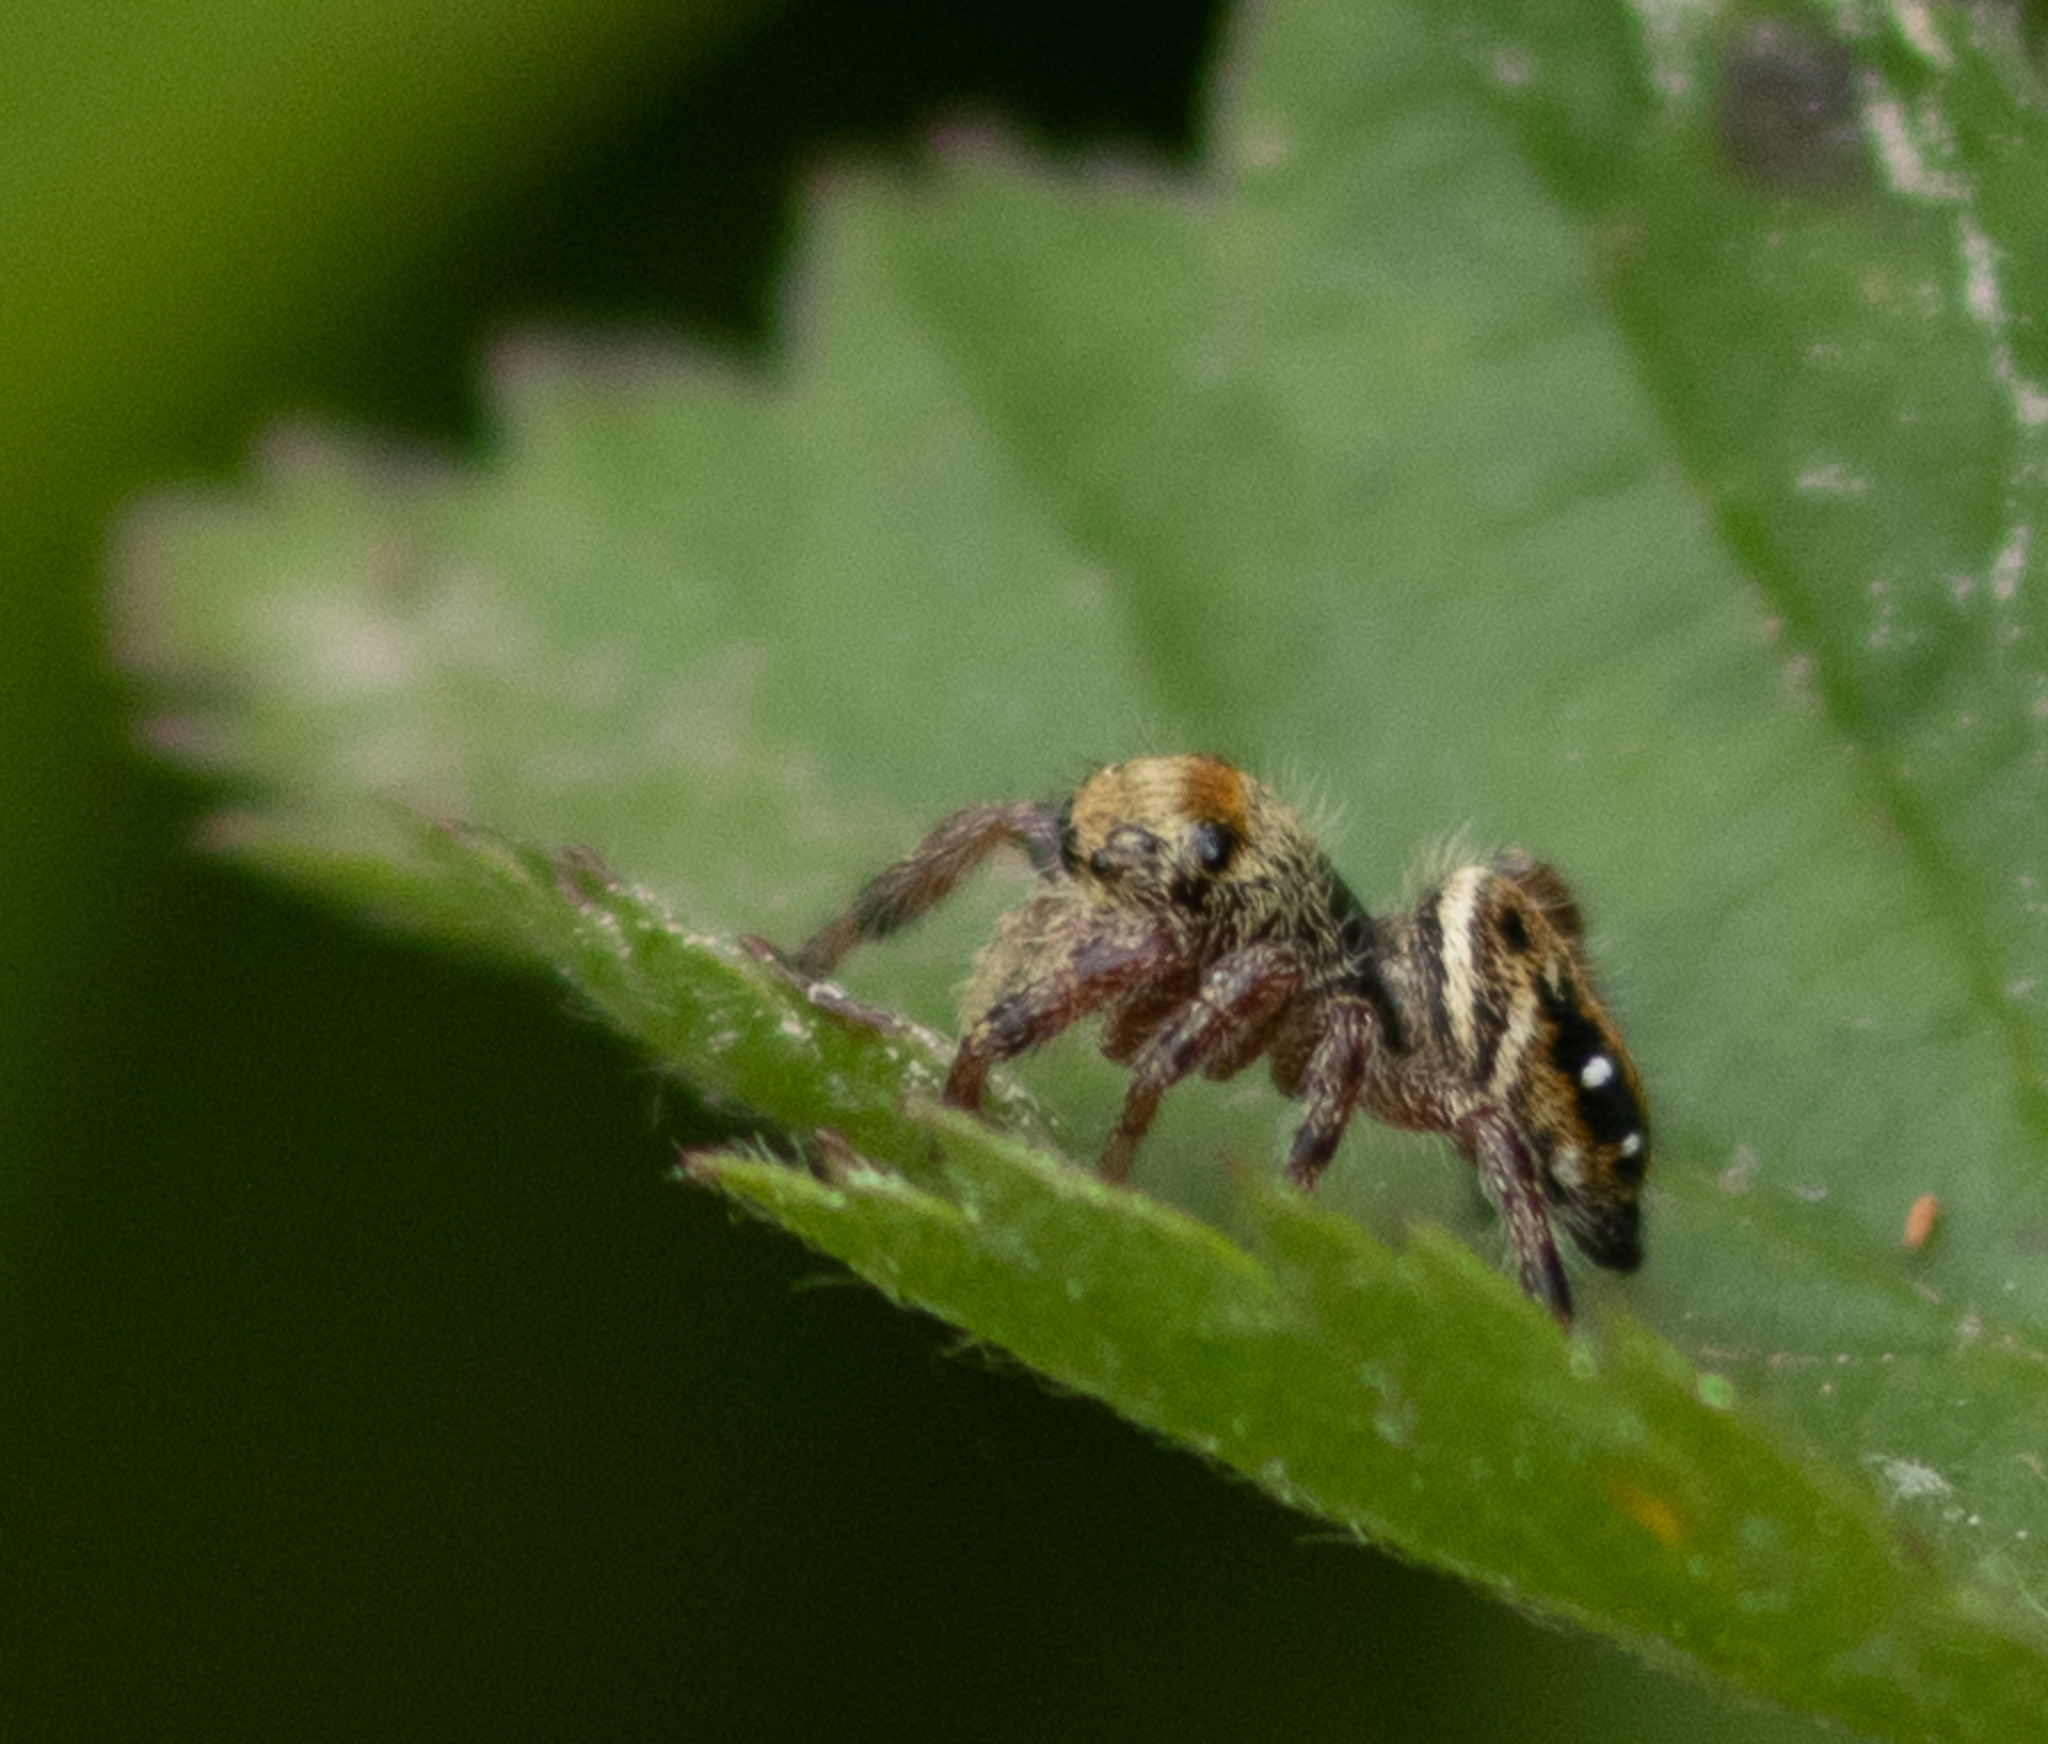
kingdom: Animalia
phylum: Arthropoda
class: Arachnida
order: Araneae
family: Salticidae
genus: Phidippus
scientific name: Phidippus clarus
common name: Brilliant jumping spider
